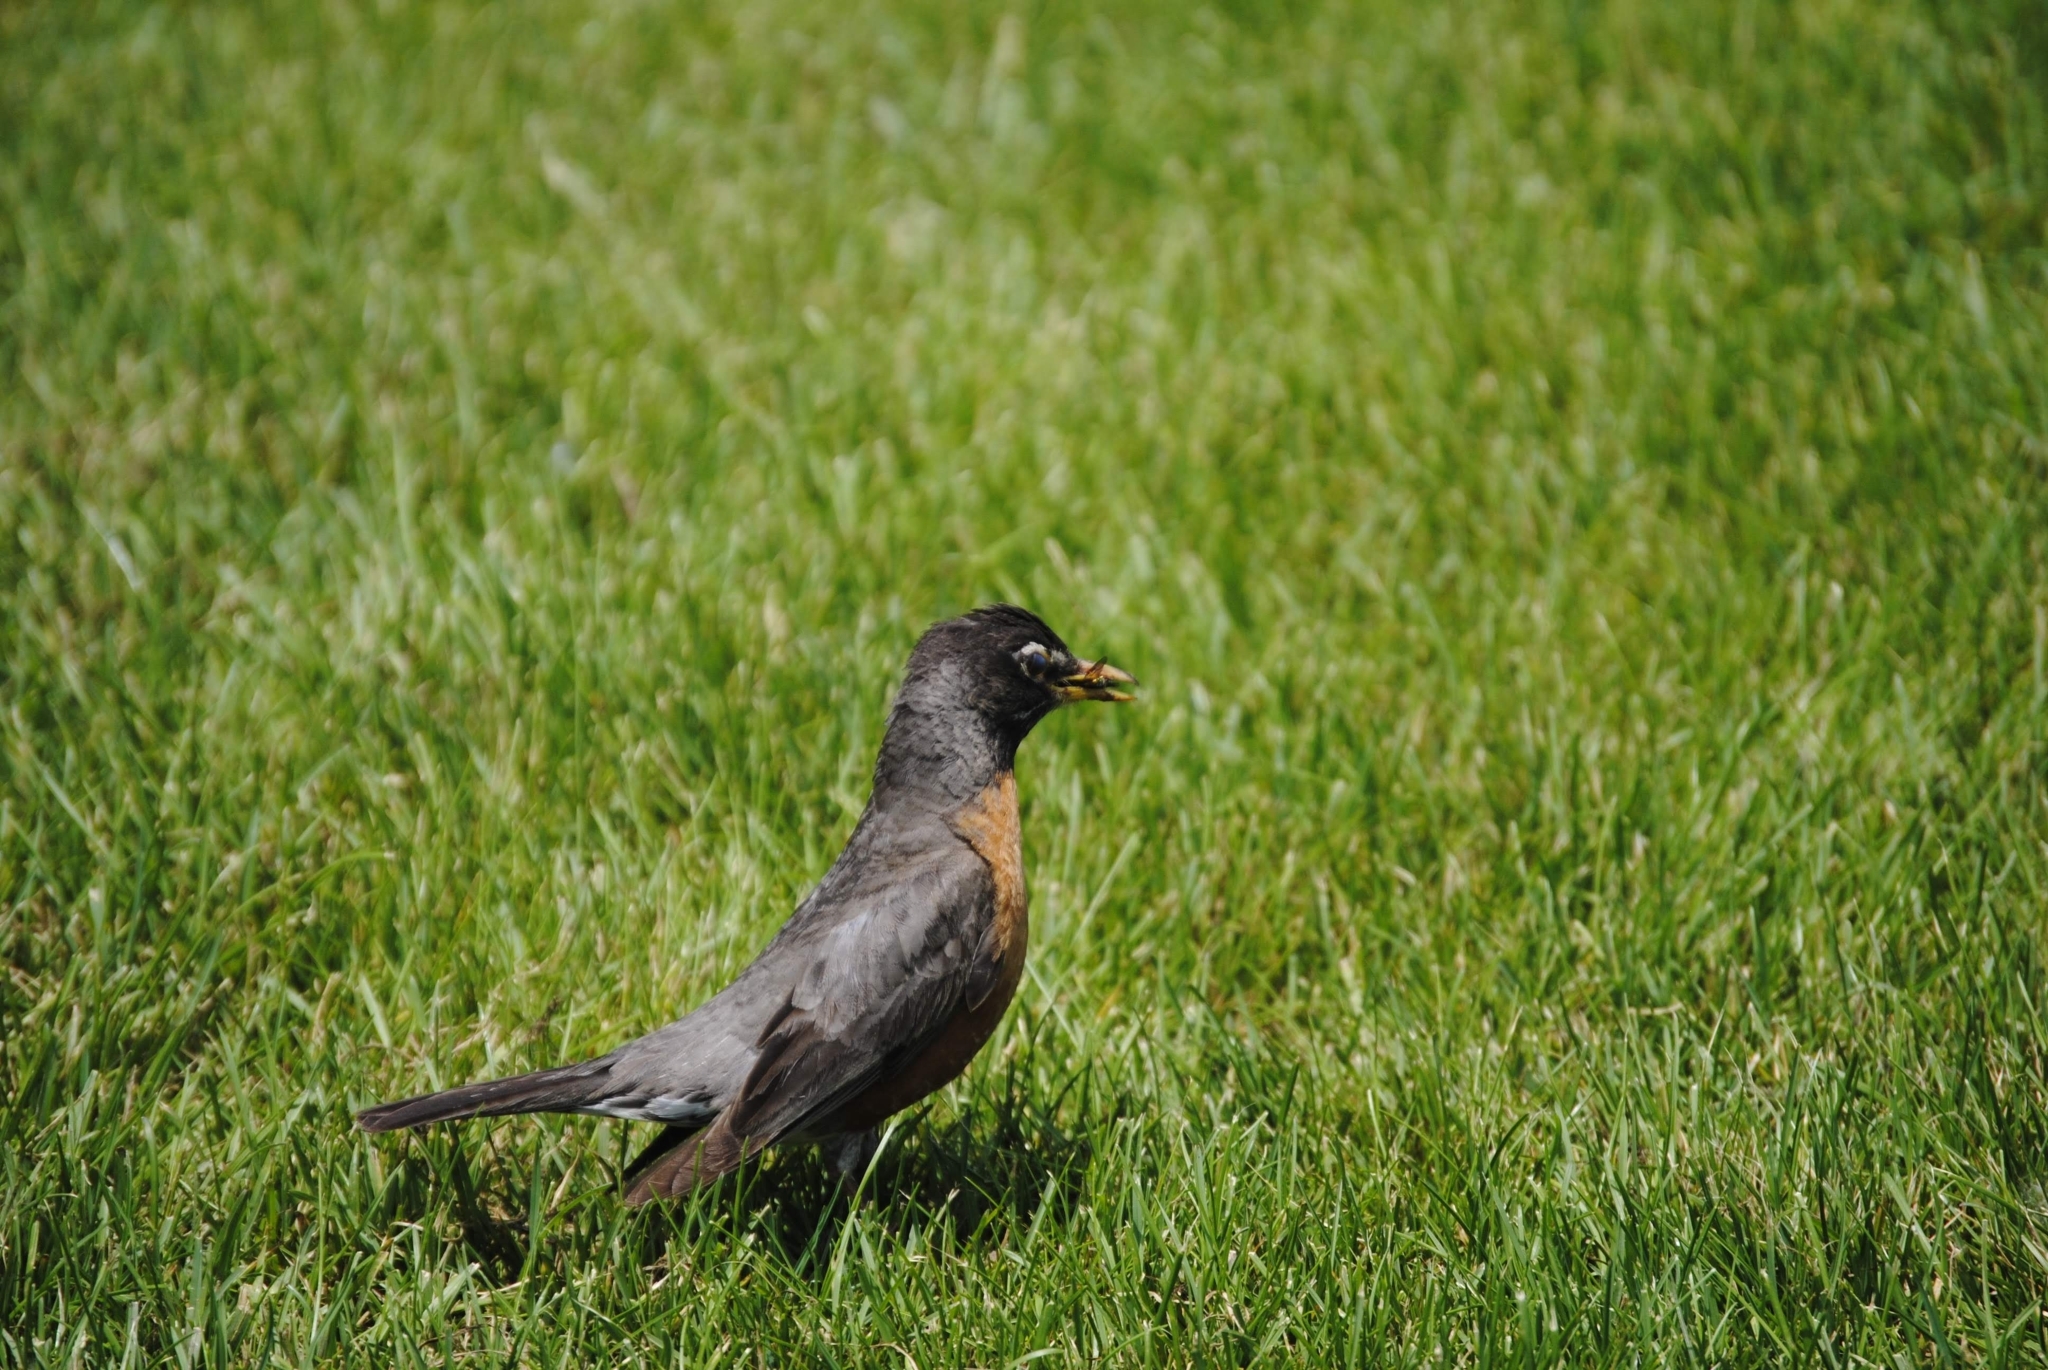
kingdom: Animalia
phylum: Chordata
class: Aves
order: Passeriformes
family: Turdidae
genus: Turdus
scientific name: Turdus migratorius
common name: American robin
